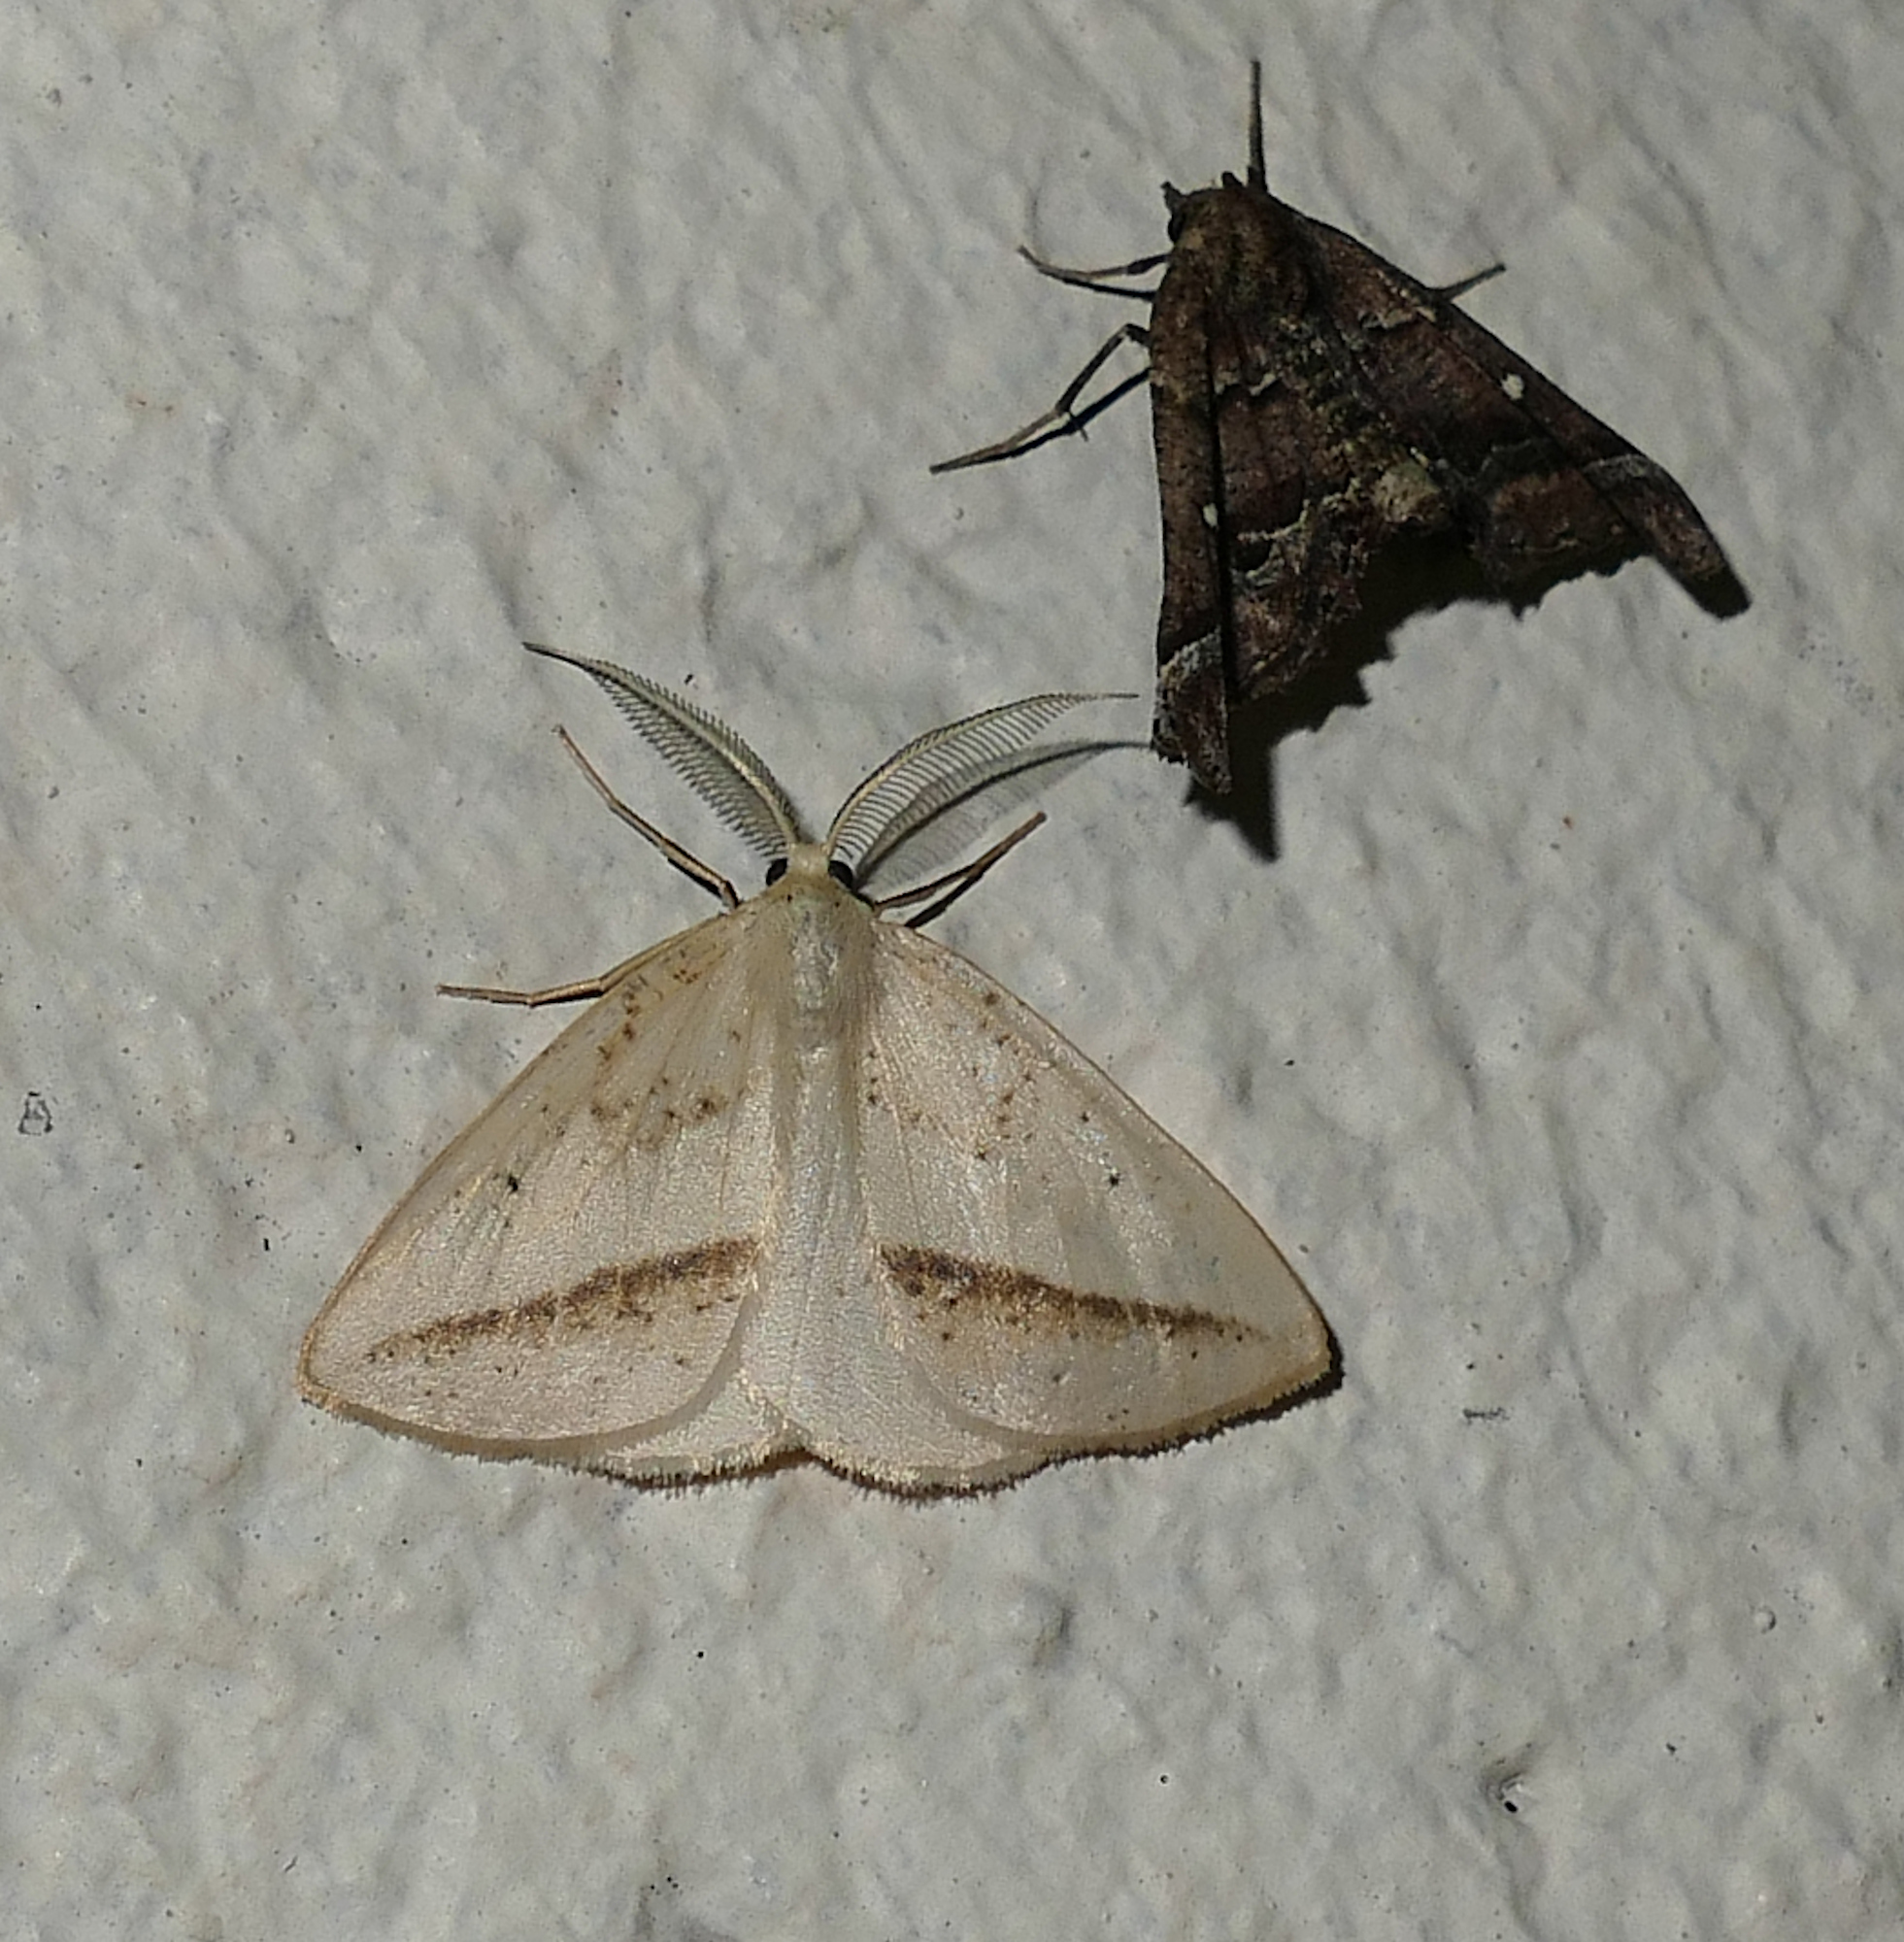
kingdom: Animalia
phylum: Arthropoda
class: Insecta
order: Lepidoptera
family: Geometridae
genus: Lychnosea
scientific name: Lychnosea intermicata
